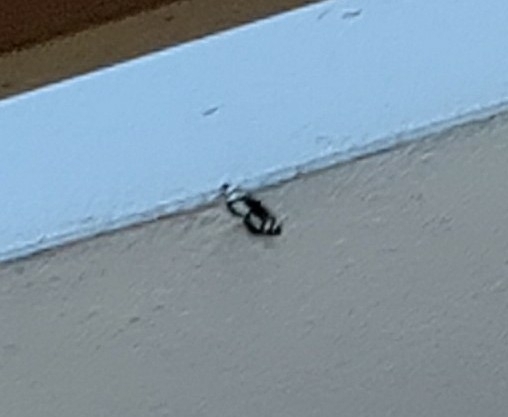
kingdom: Animalia
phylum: Arthropoda
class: Insecta
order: Lepidoptera
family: Nymphalidae
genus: Neptis
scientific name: Neptis rivularis
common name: Hungarian glider
